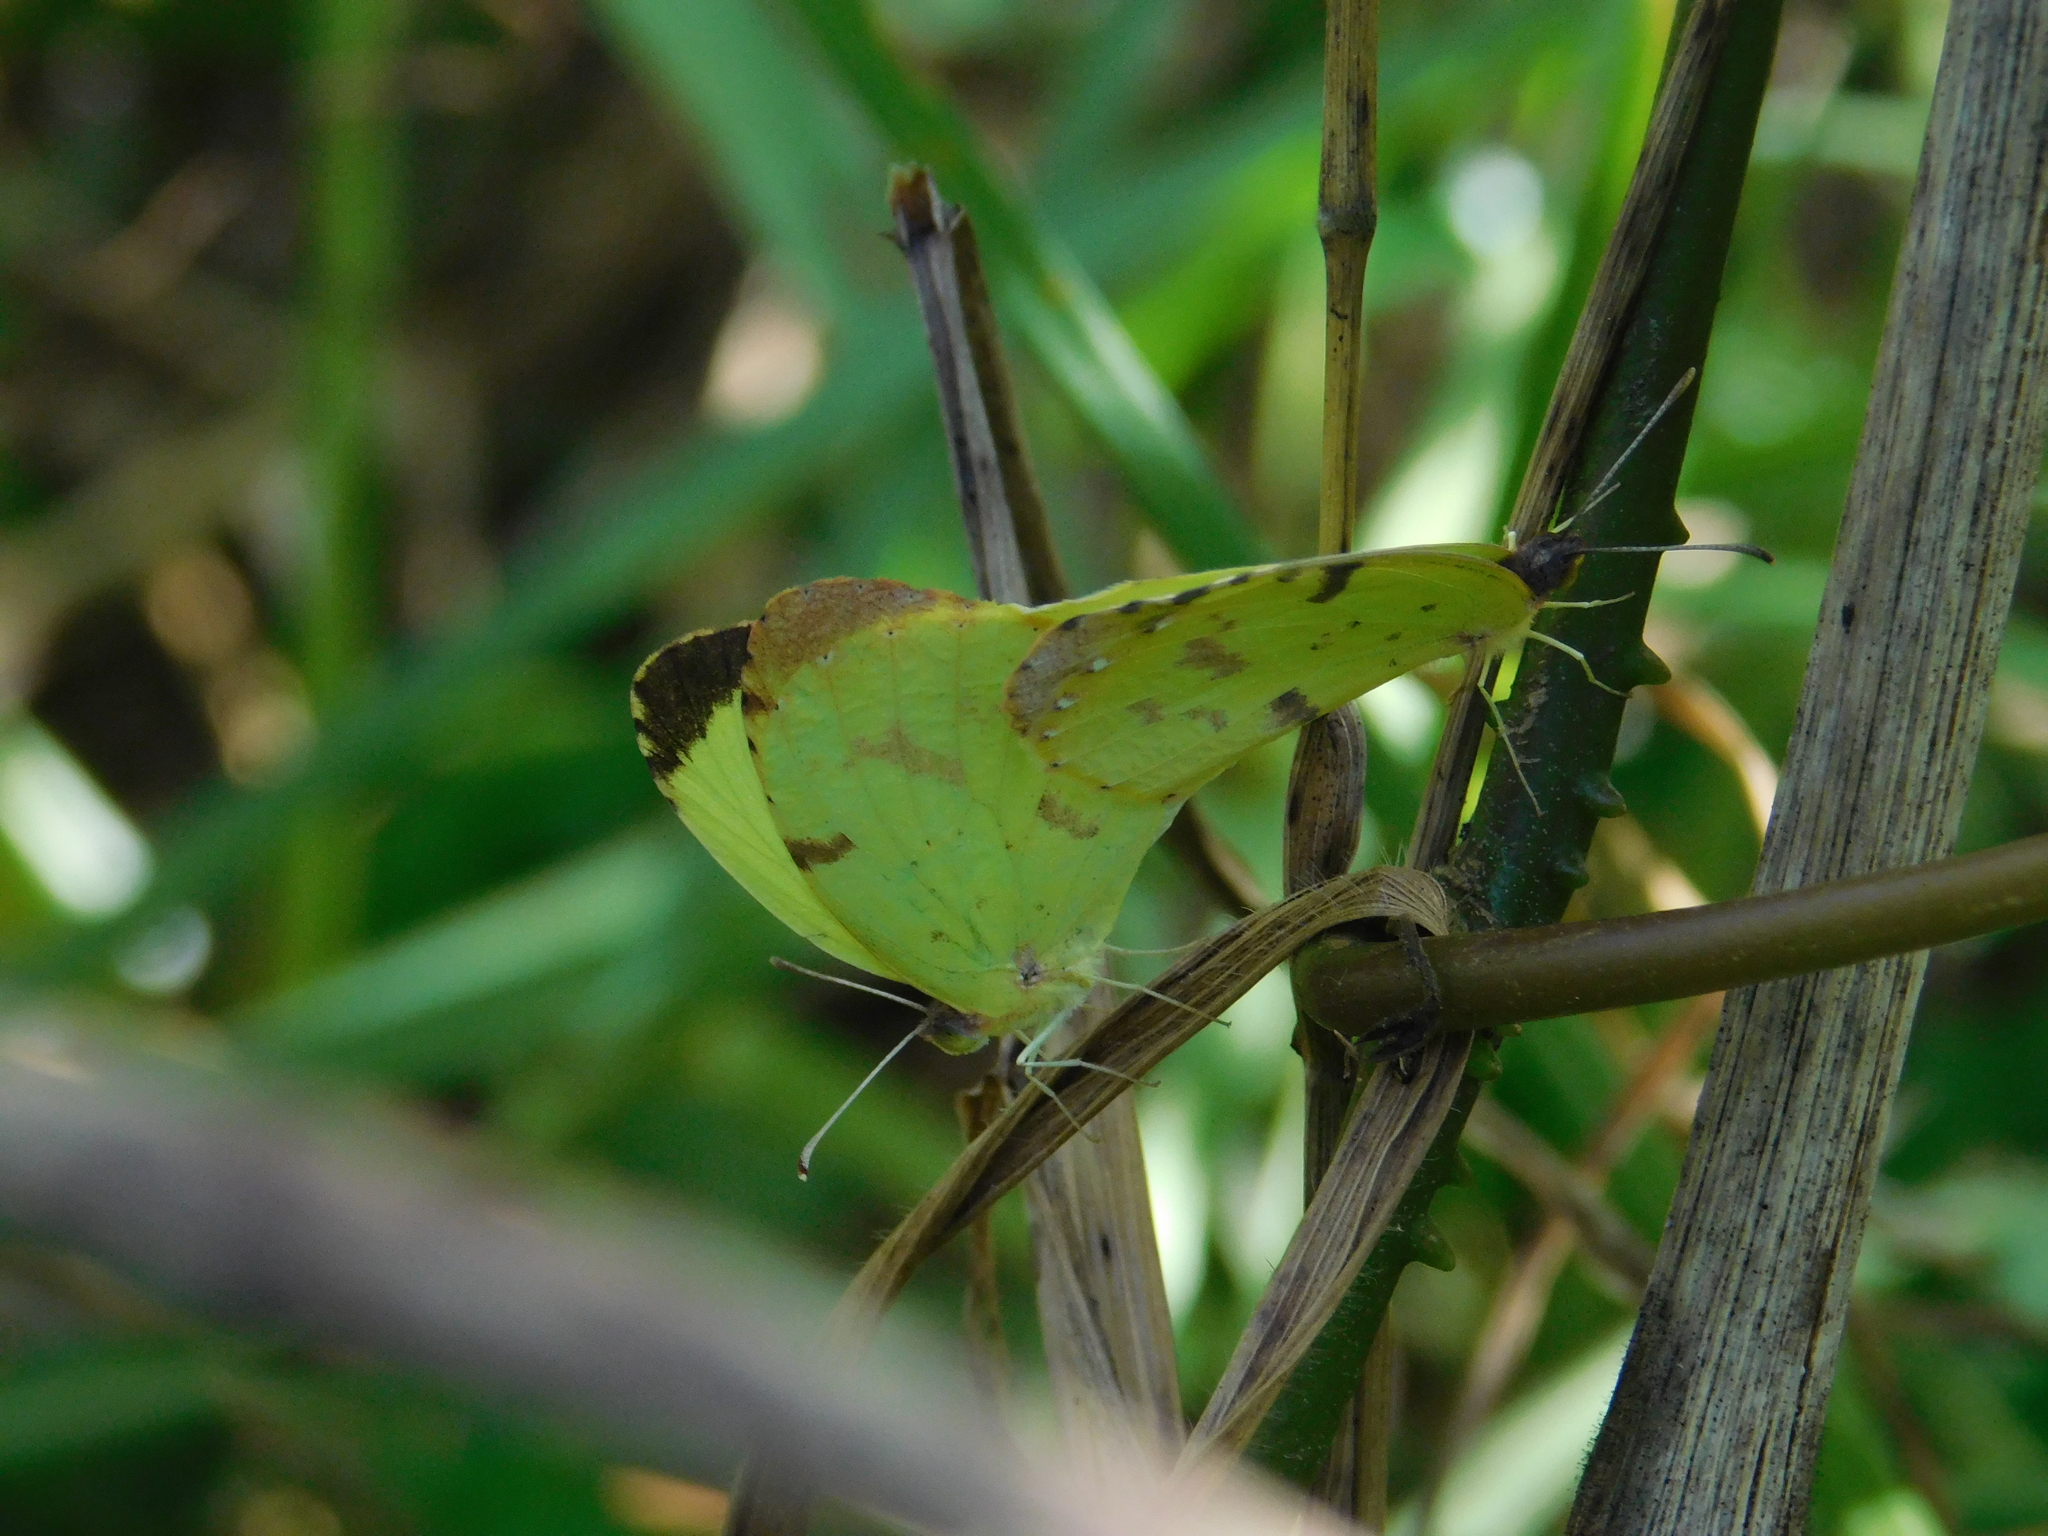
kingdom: Animalia
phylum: Arthropoda
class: Insecta
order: Lepidoptera
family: Pieridae
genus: Teriocolias
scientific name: Teriocolias
